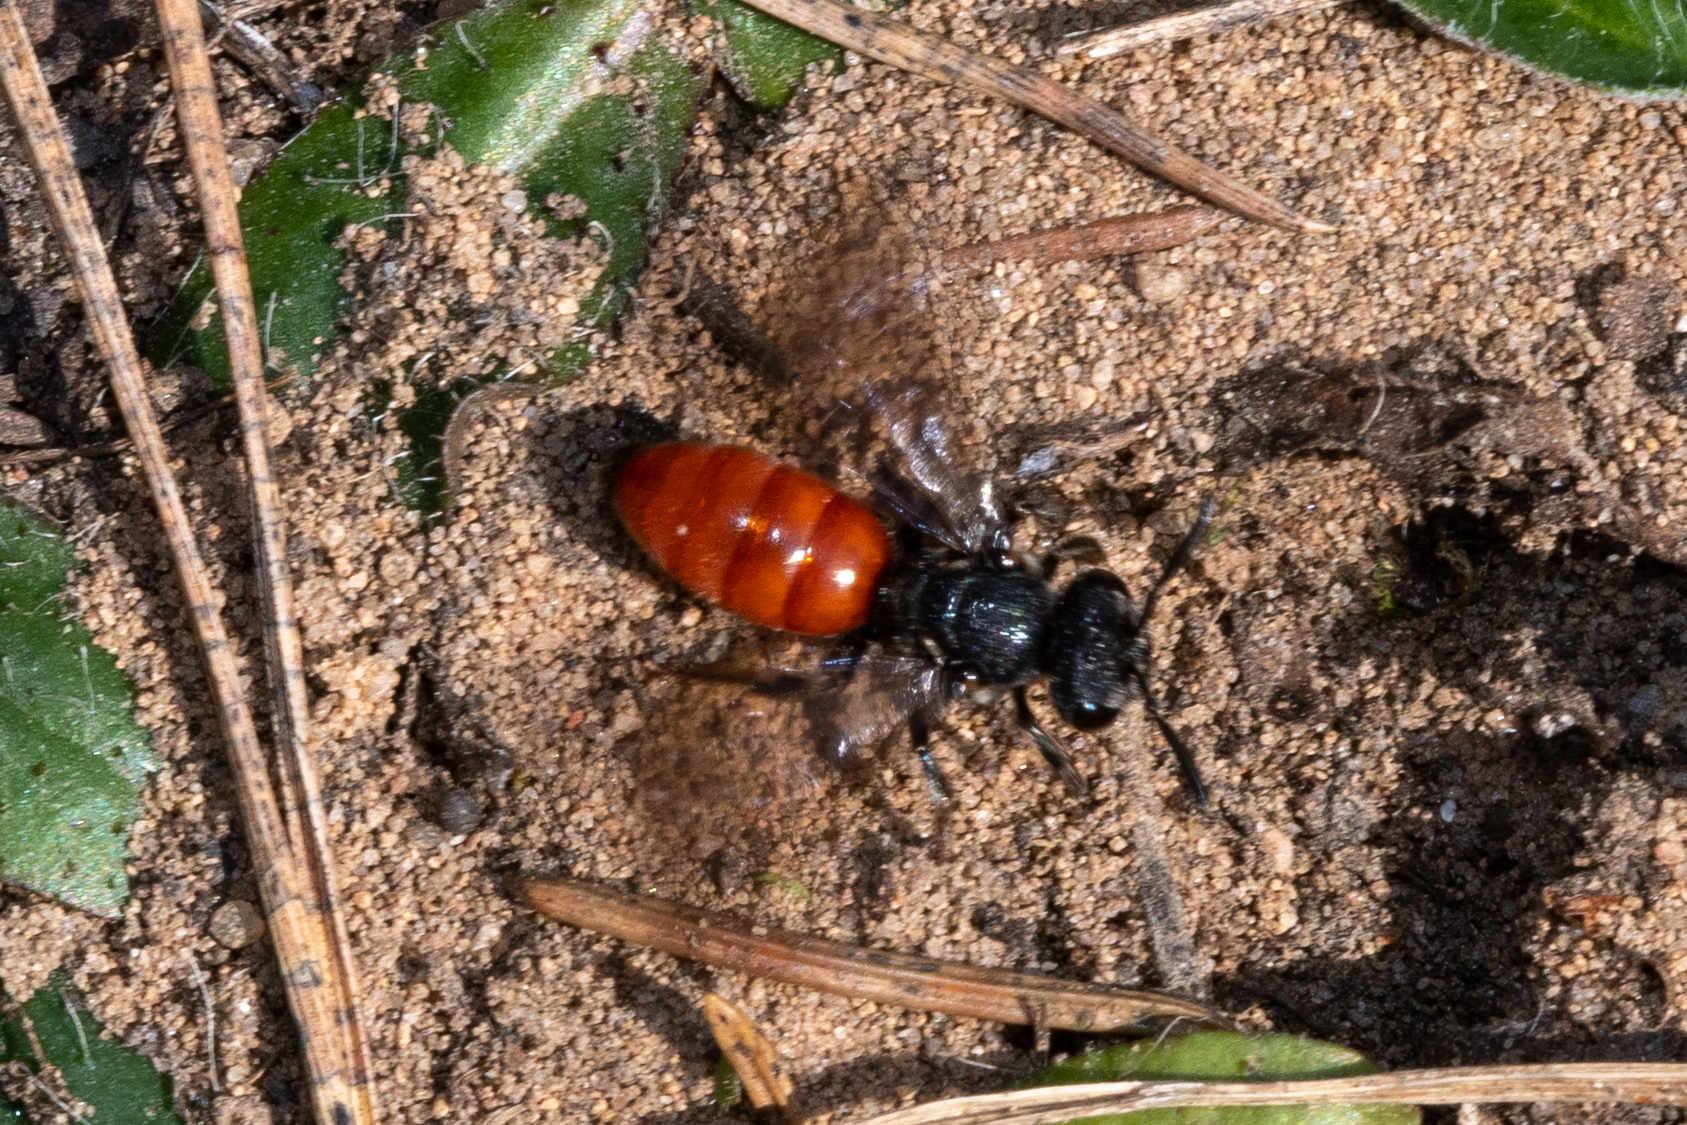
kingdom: Animalia
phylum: Arthropoda
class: Insecta
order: Hymenoptera
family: Halictidae
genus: Sphecodes
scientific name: Sphecodes albilabris
